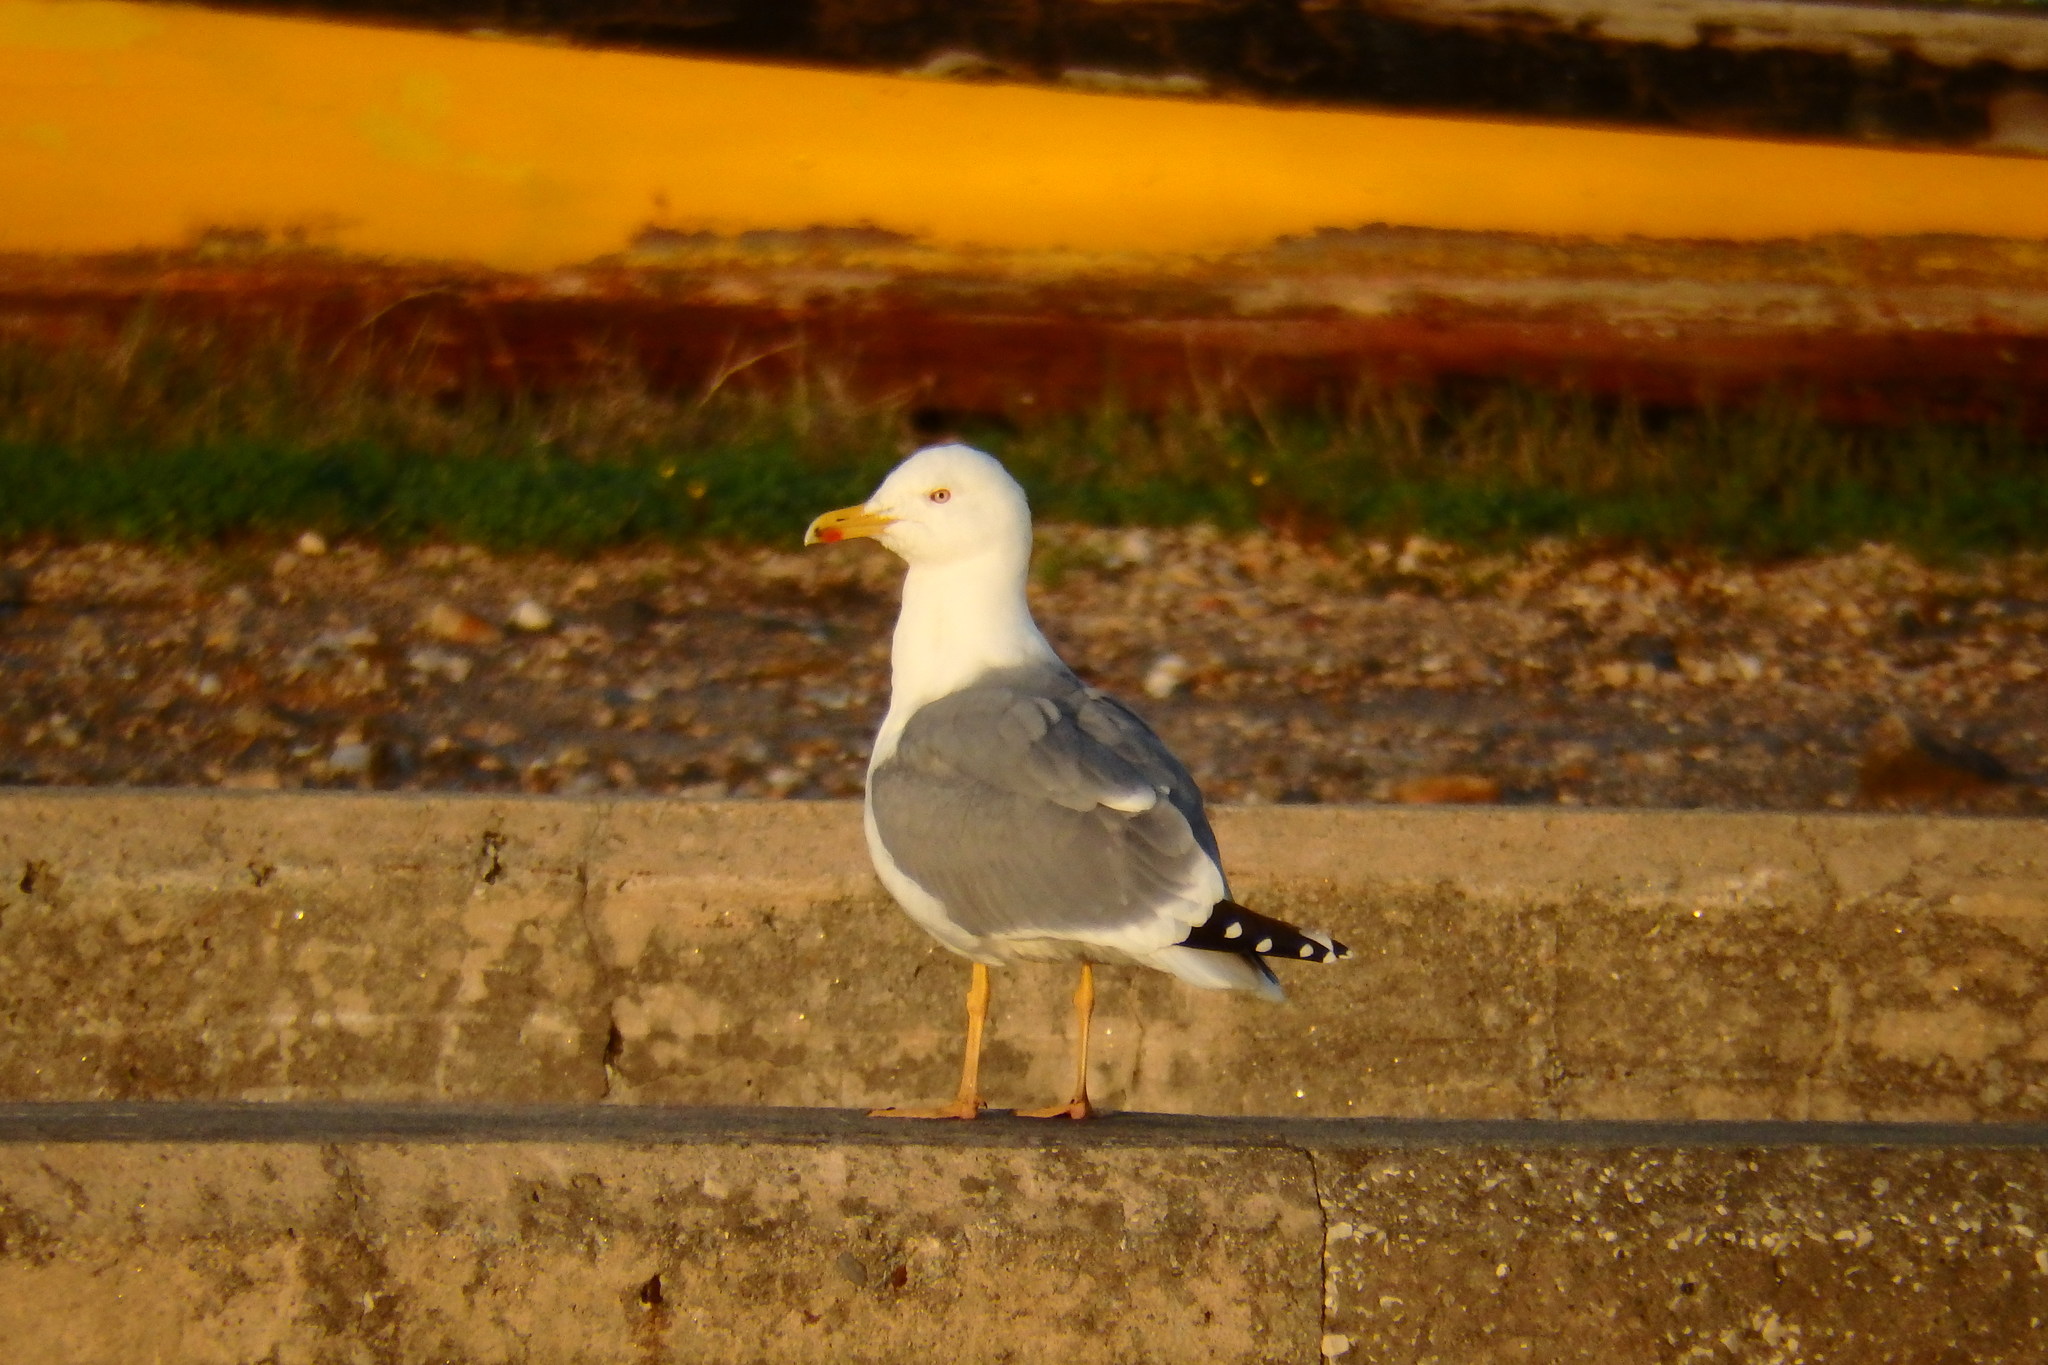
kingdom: Animalia
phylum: Chordata
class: Aves
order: Charadriiformes
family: Laridae
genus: Larus
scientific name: Larus michahellis
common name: Yellow-legged gull
